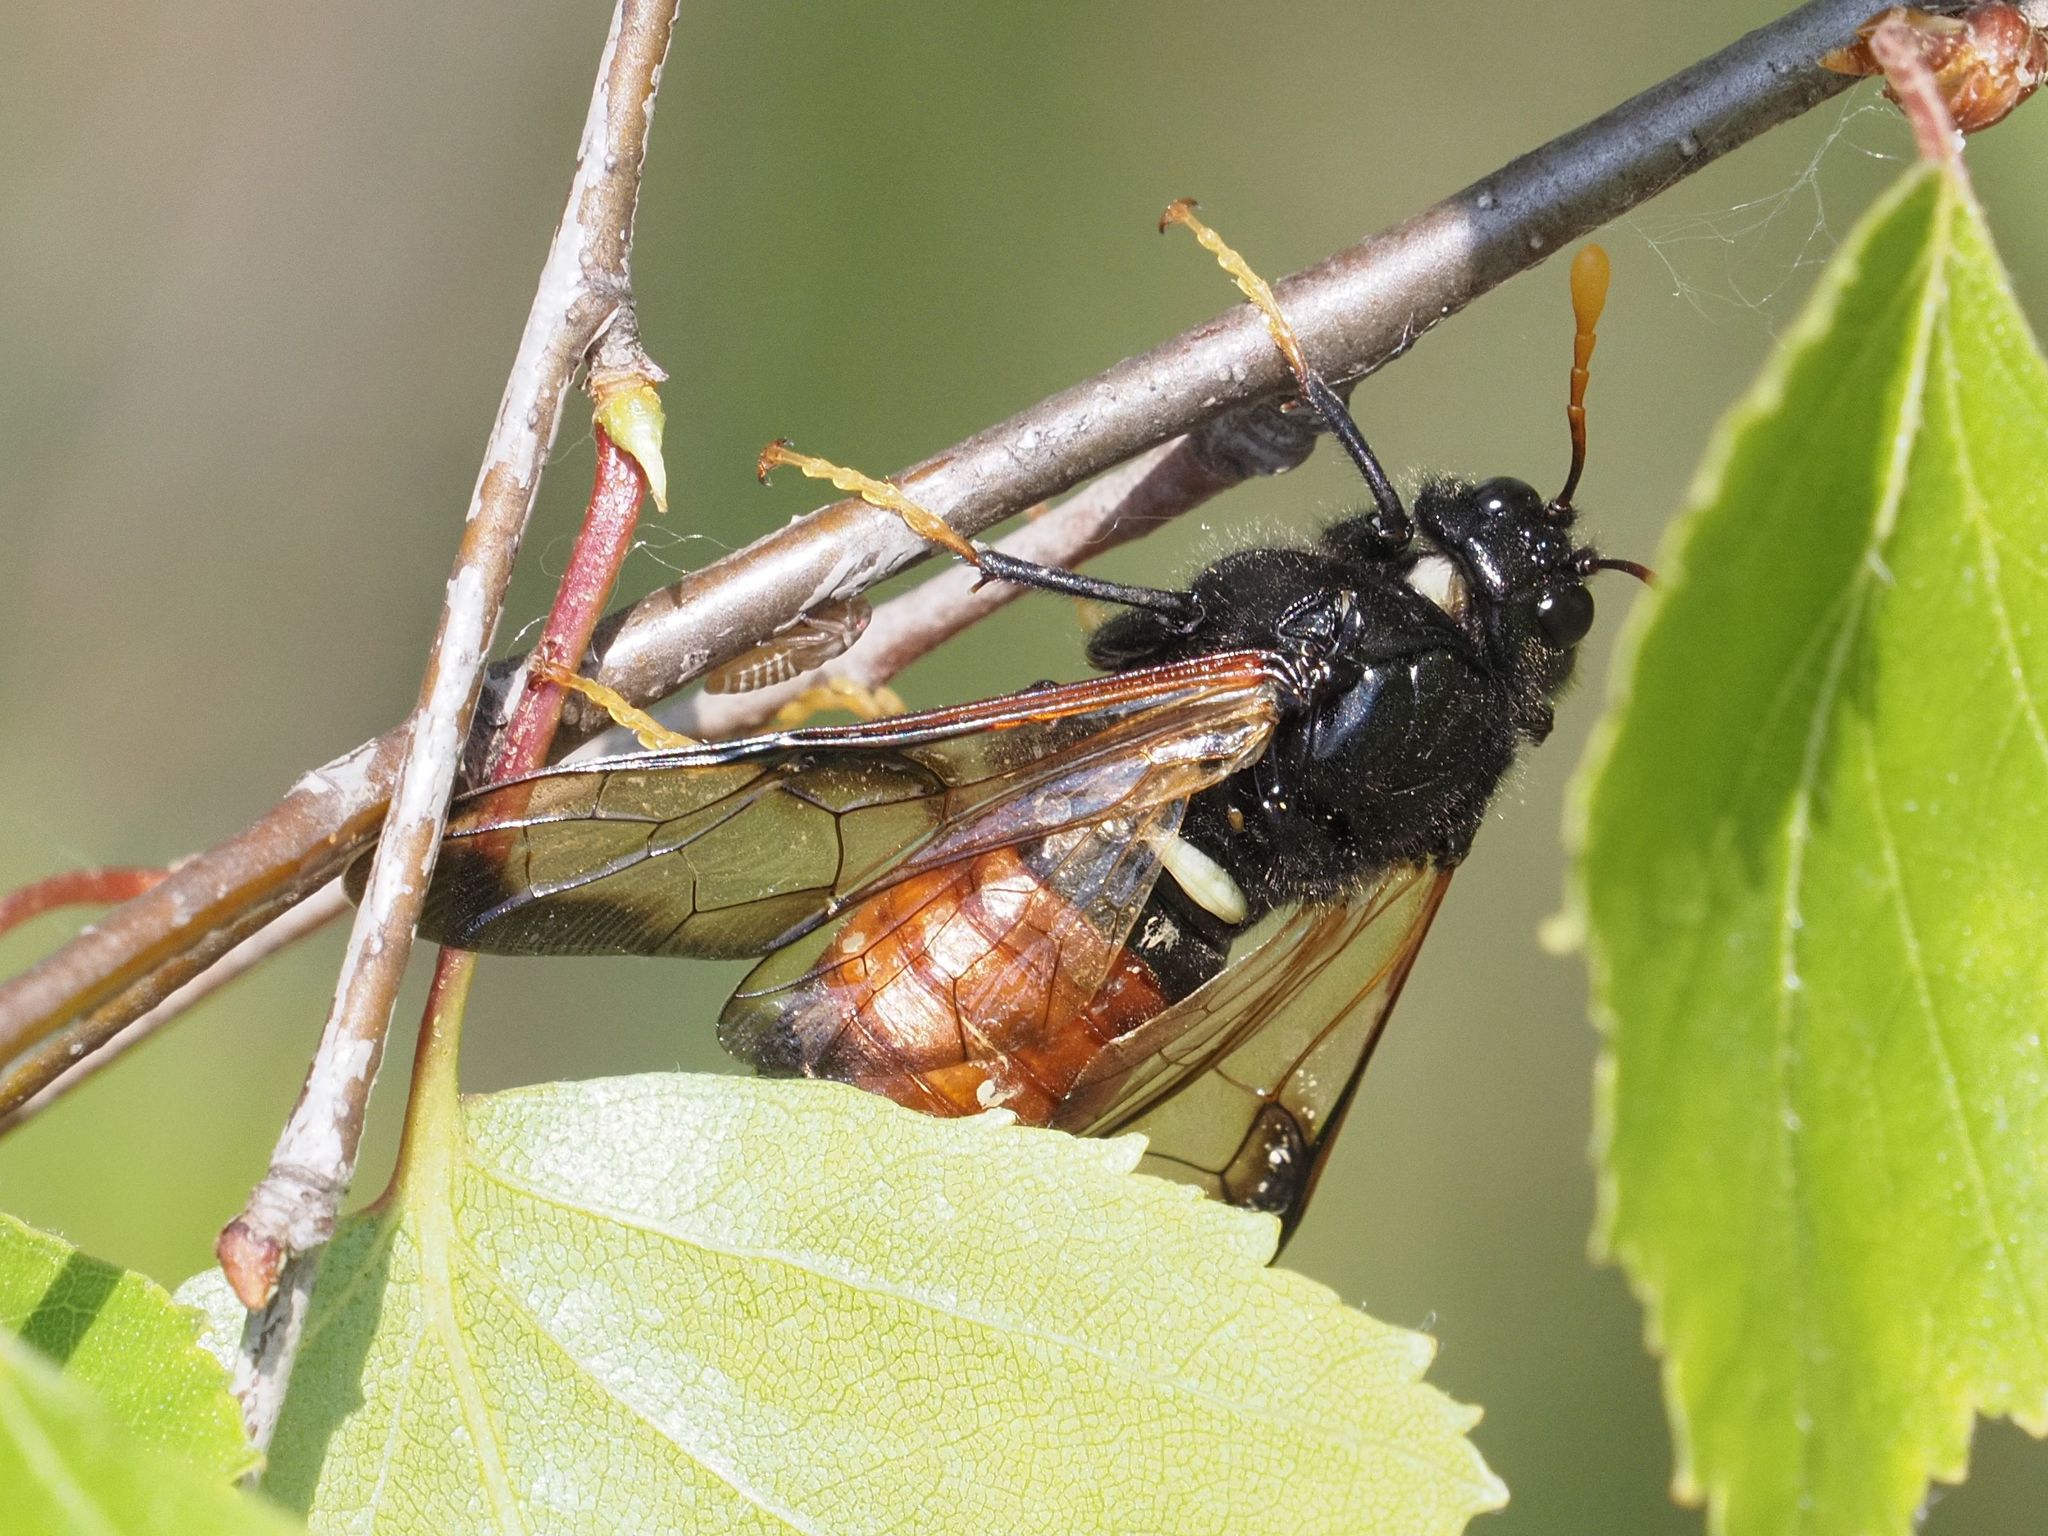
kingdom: Animalia
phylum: Arthropoda
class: Insecta
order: Hymenoptera
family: Cimbicidae
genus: Cimbex
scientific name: Cimbex femoratus
